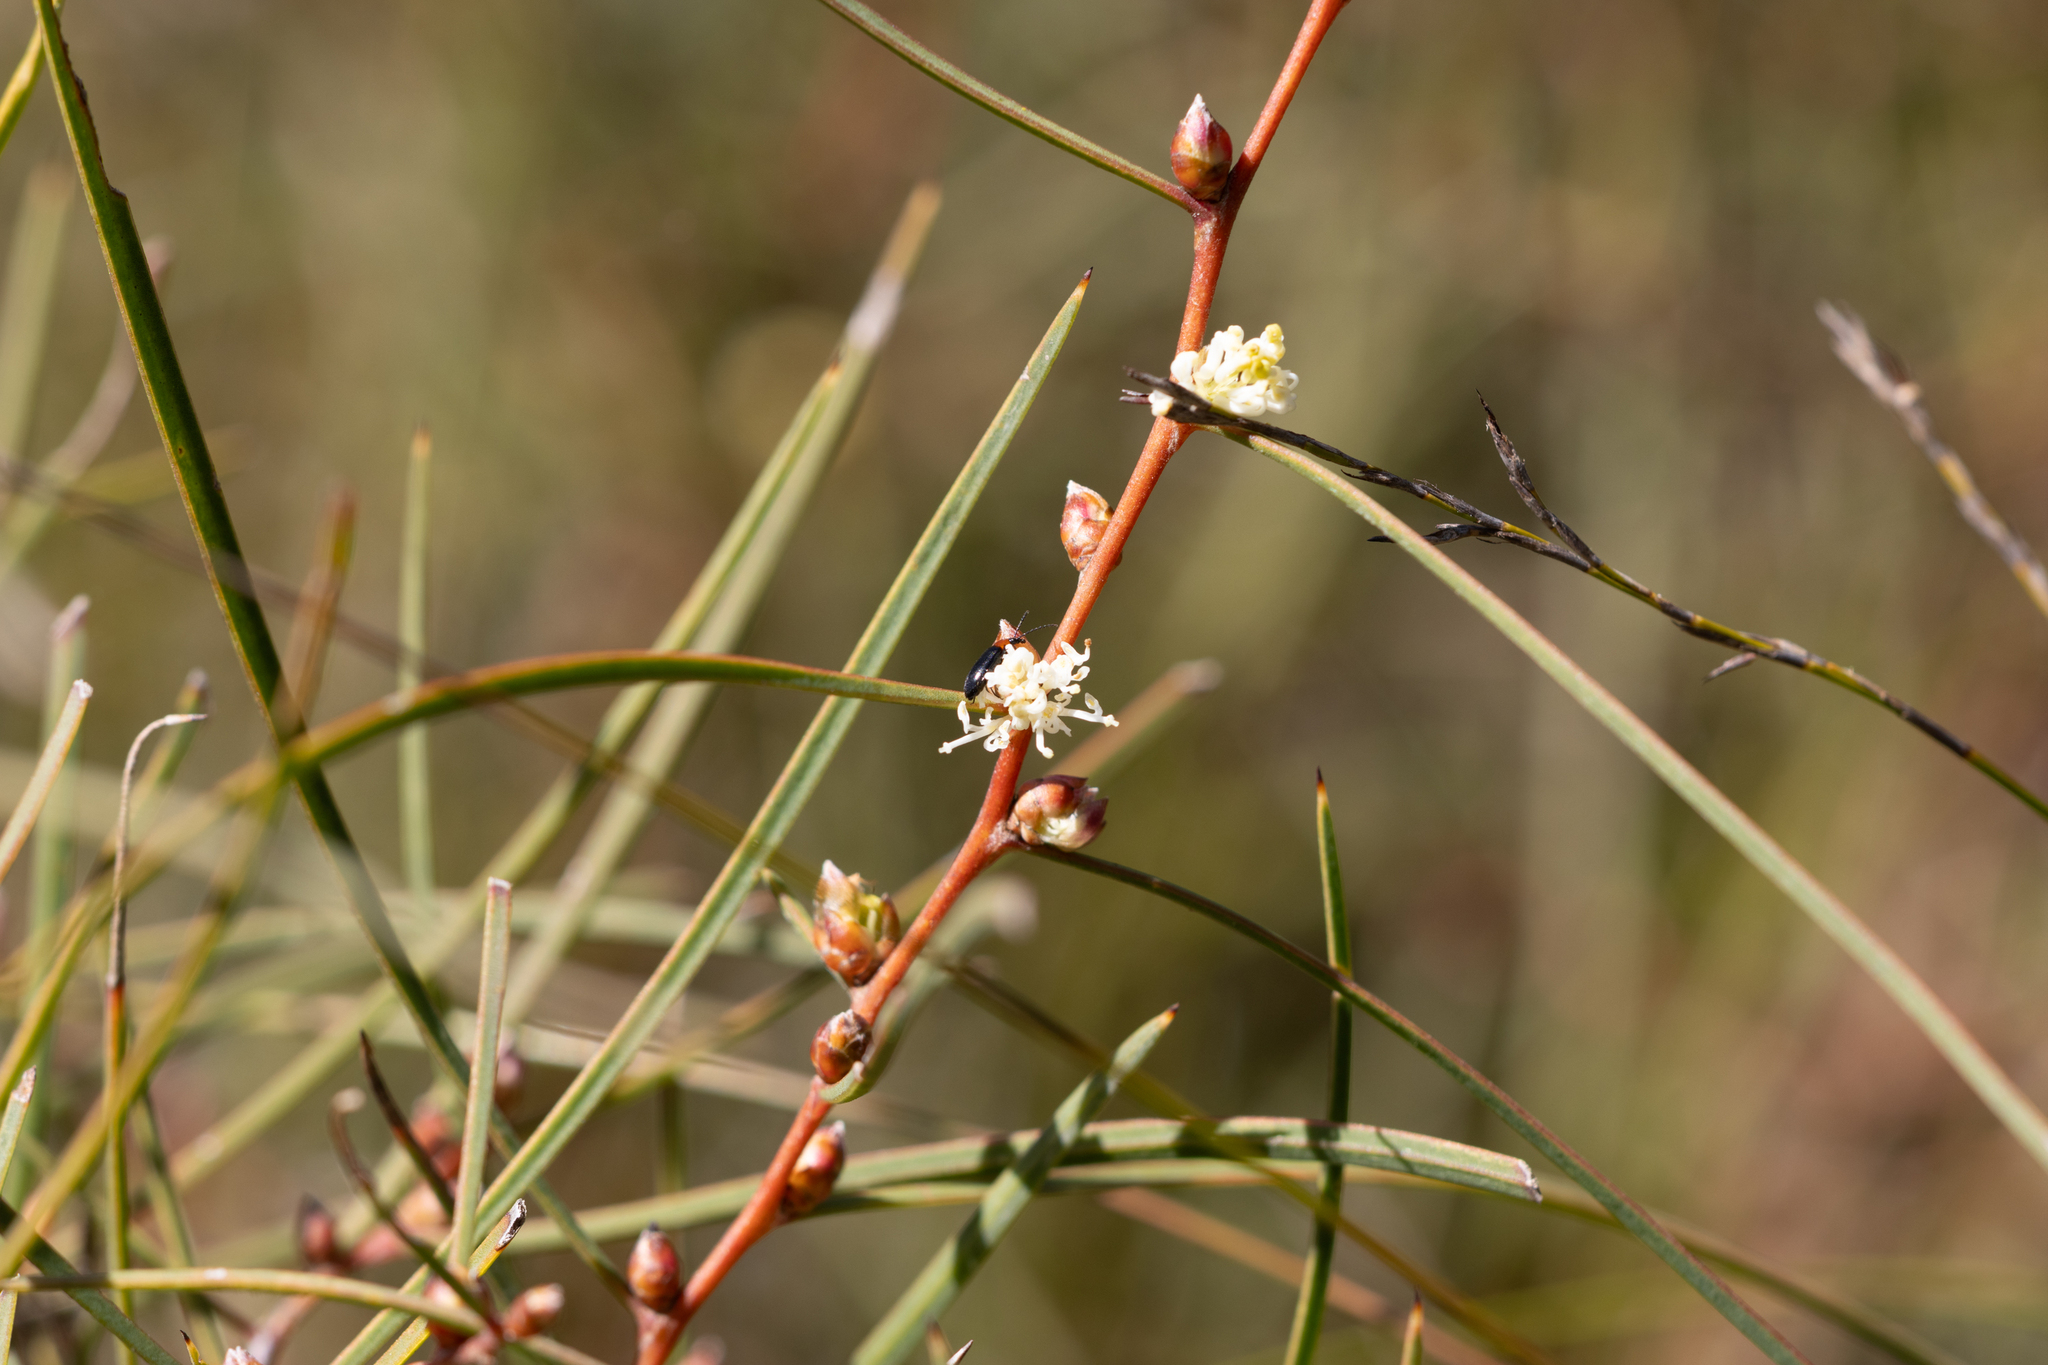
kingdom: Plantae
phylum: Tracheophyta
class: Magnoliopsida
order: Proteales
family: Proteaceae
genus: Hakea
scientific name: Hakea carinata
